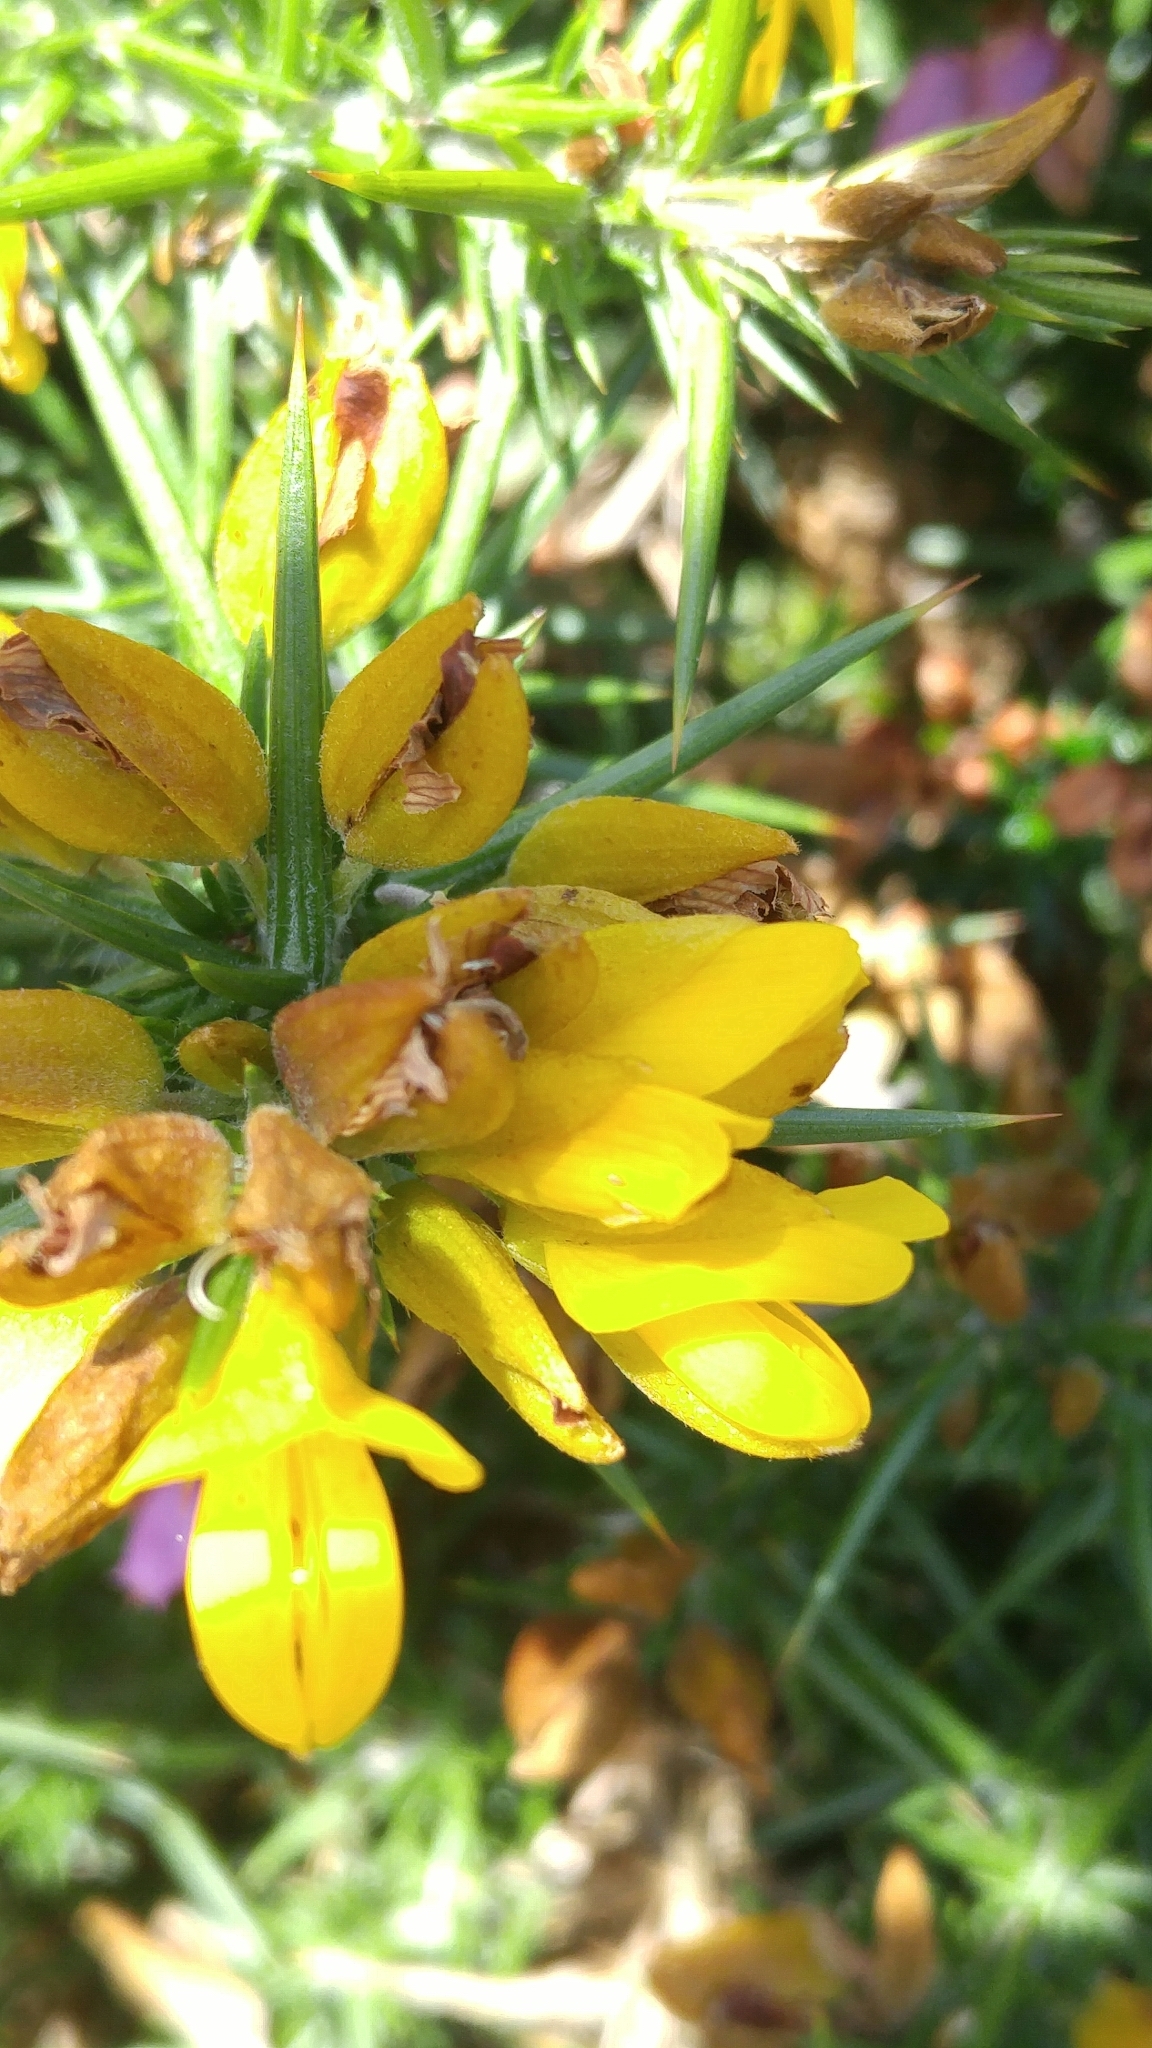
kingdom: Plantae
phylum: Tracheophyta
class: Magnoliopsida
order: Fabales
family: Fabaceae
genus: Ulex
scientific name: Ulex gallii
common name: Western gorse
